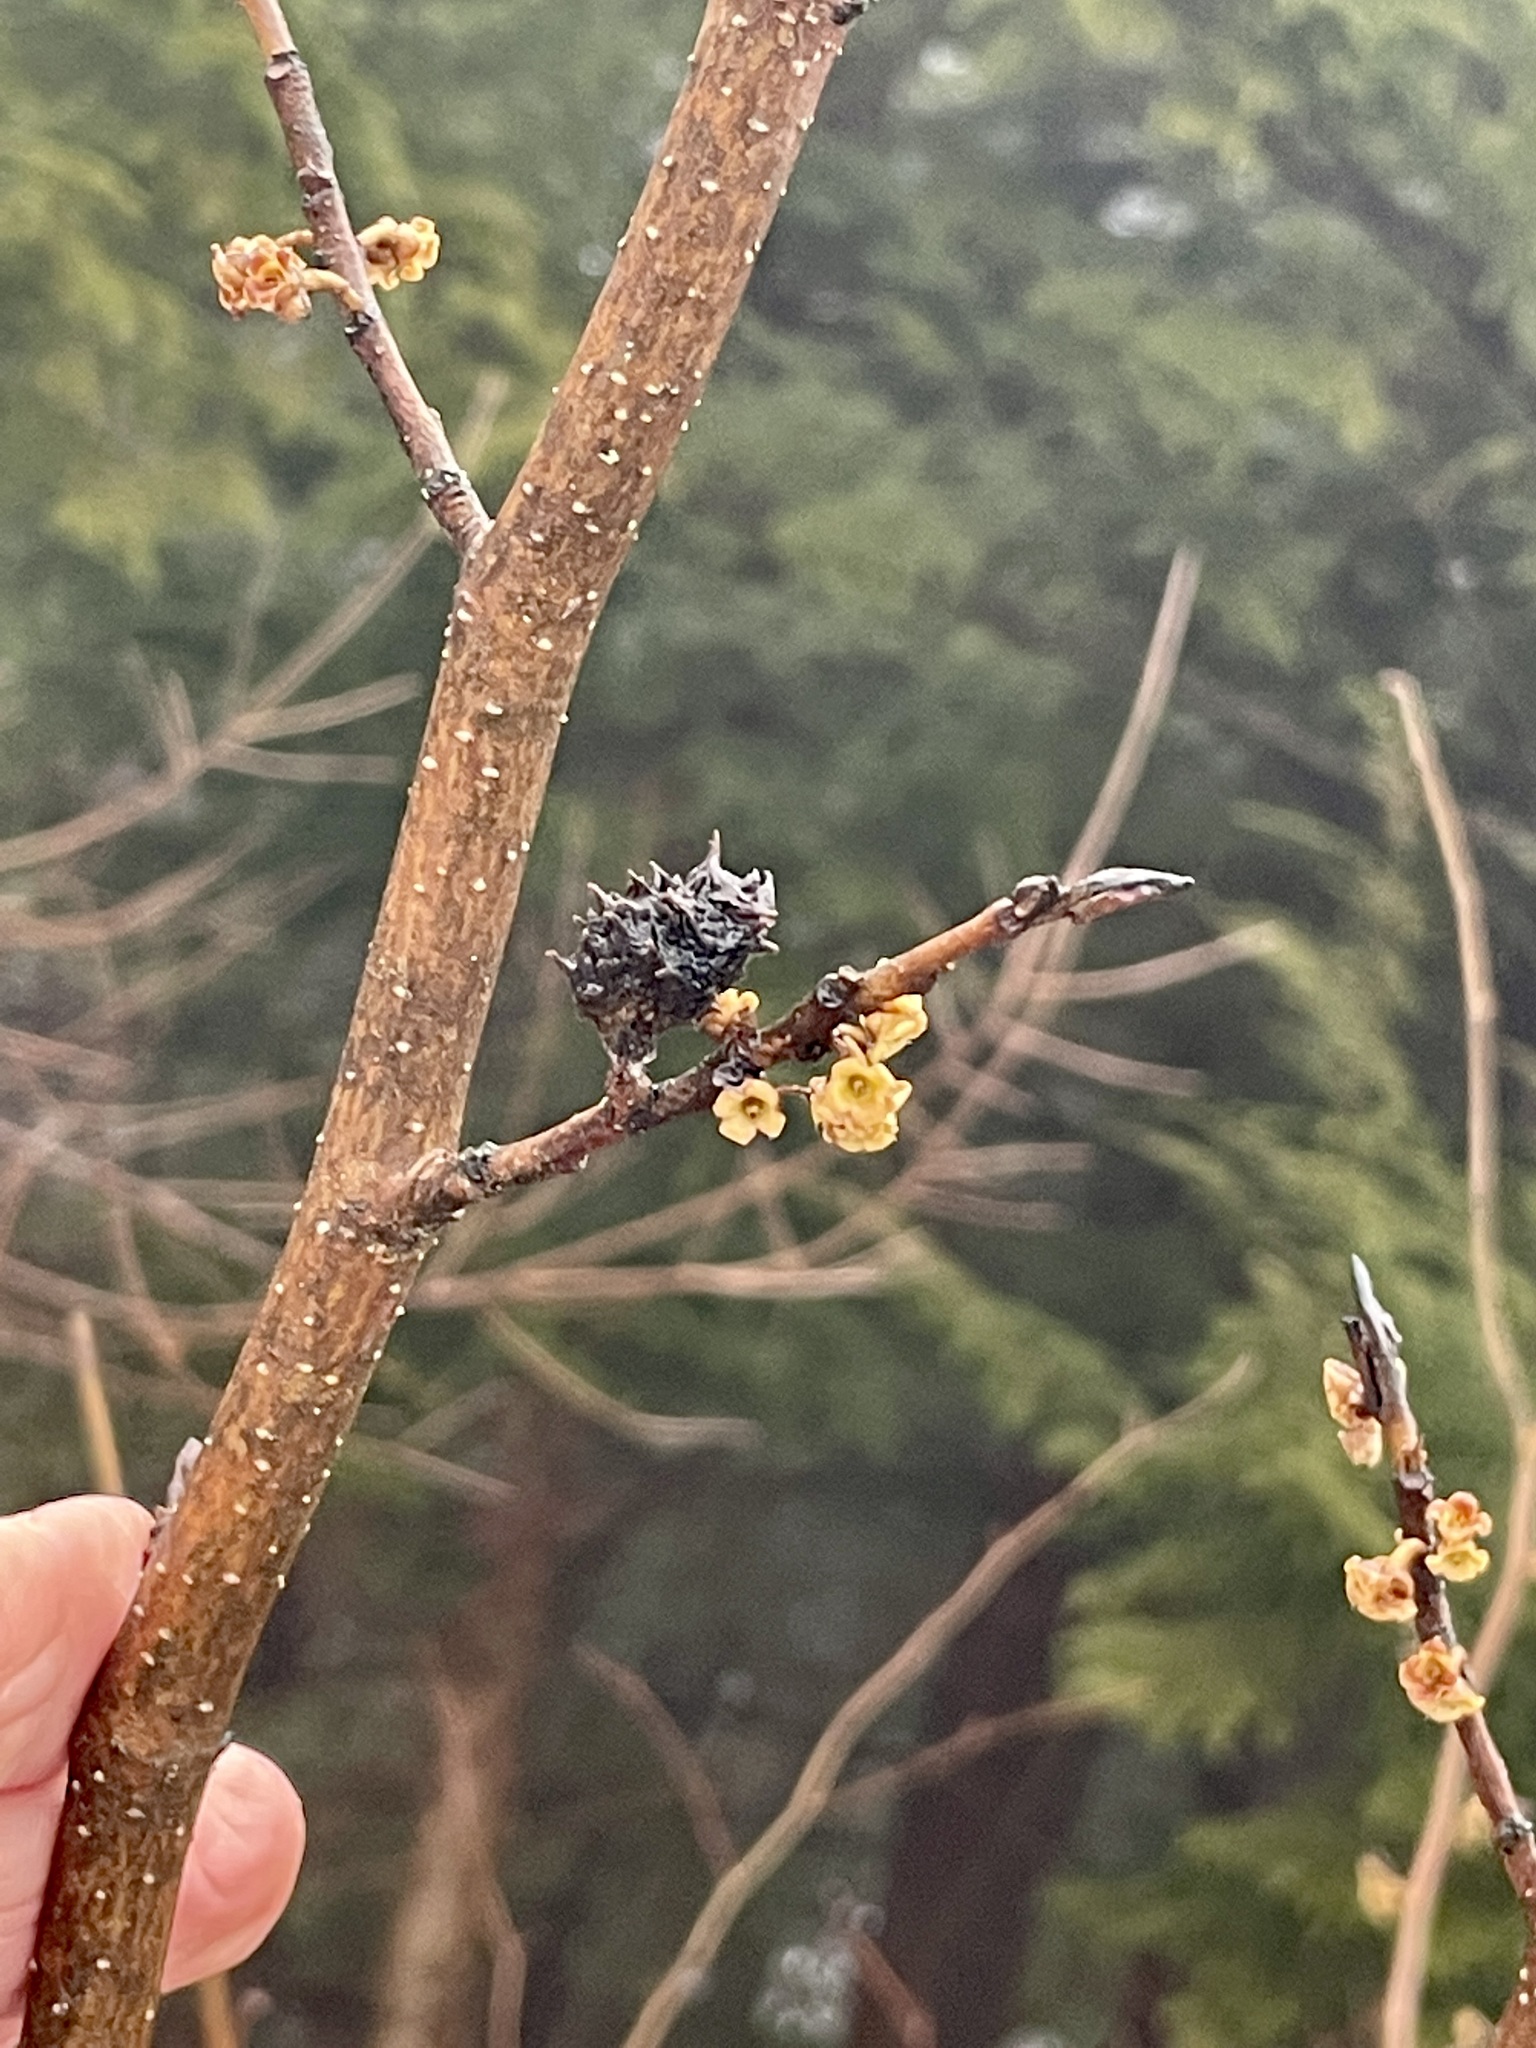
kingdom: Animalia
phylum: Arthropoda
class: Insecta
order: Hemiptera
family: Aphididae
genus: Hamamelistes
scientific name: Hamamelistes spinosus
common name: Witch hazel gall aphid
